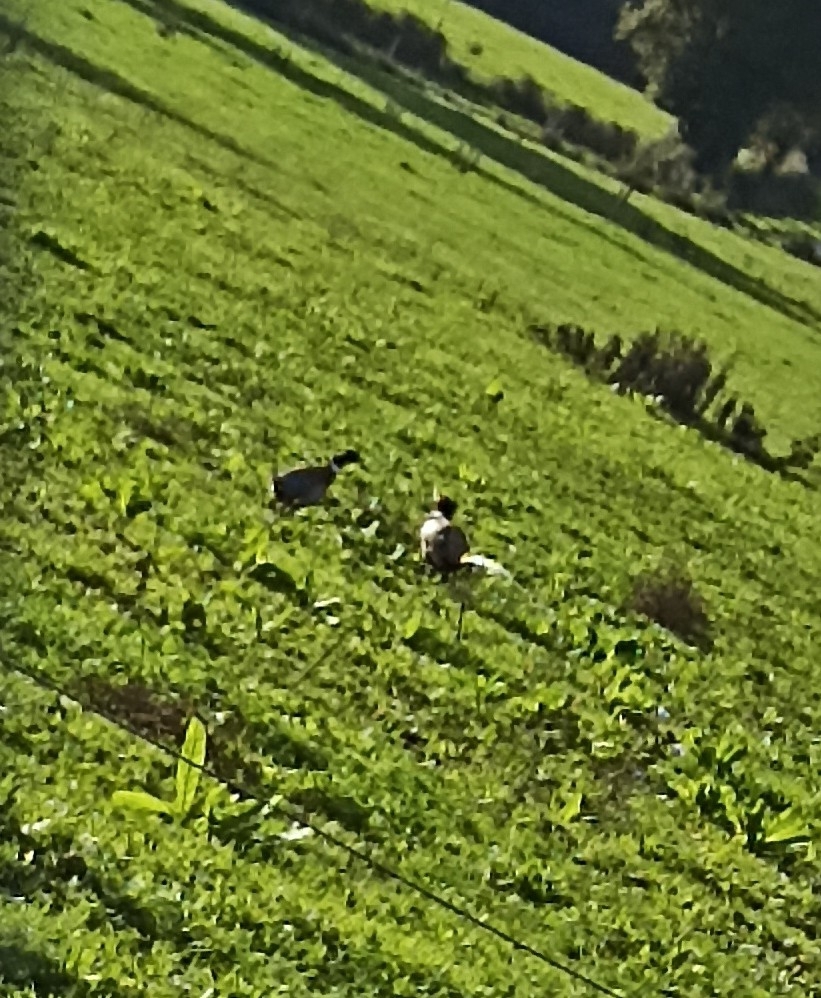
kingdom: Animalia
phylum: Chordata
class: Aves
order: Galliformes
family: Phasianidae
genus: Phasianus
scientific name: Phasianus colchicus
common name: Common pheasant
